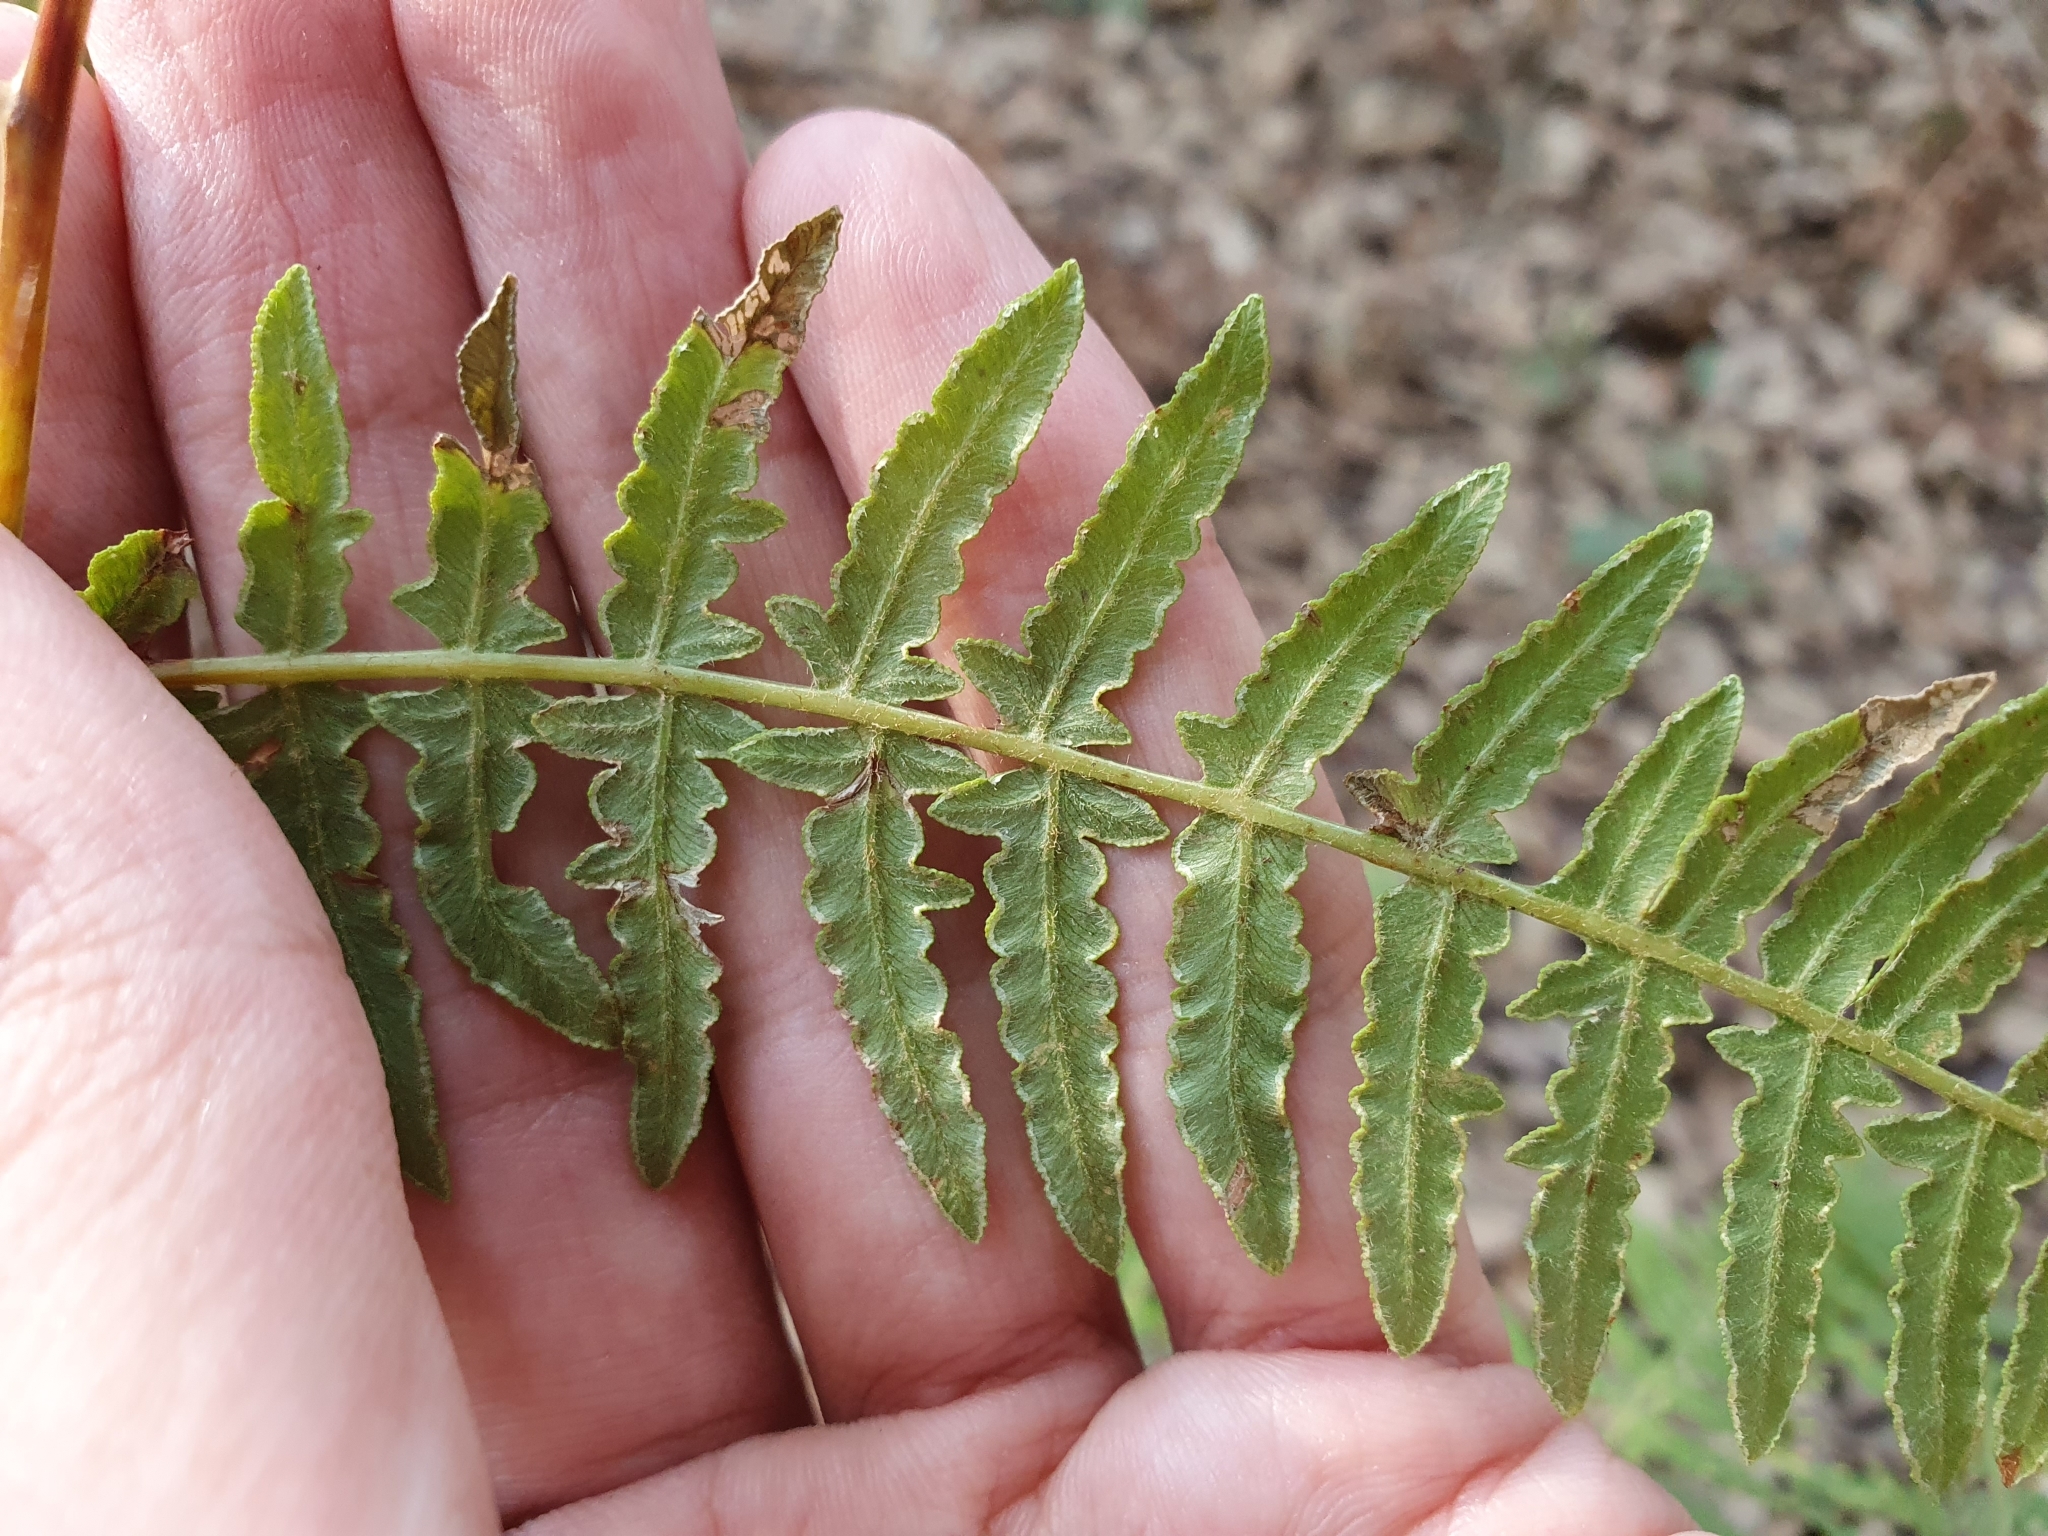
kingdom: Plantae
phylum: Tracheophyta
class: Polypodiopsida
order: Polypodiales
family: Dennstaedtiaceae
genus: Pteridium
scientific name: Pteridium aquilinum
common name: Bracken
